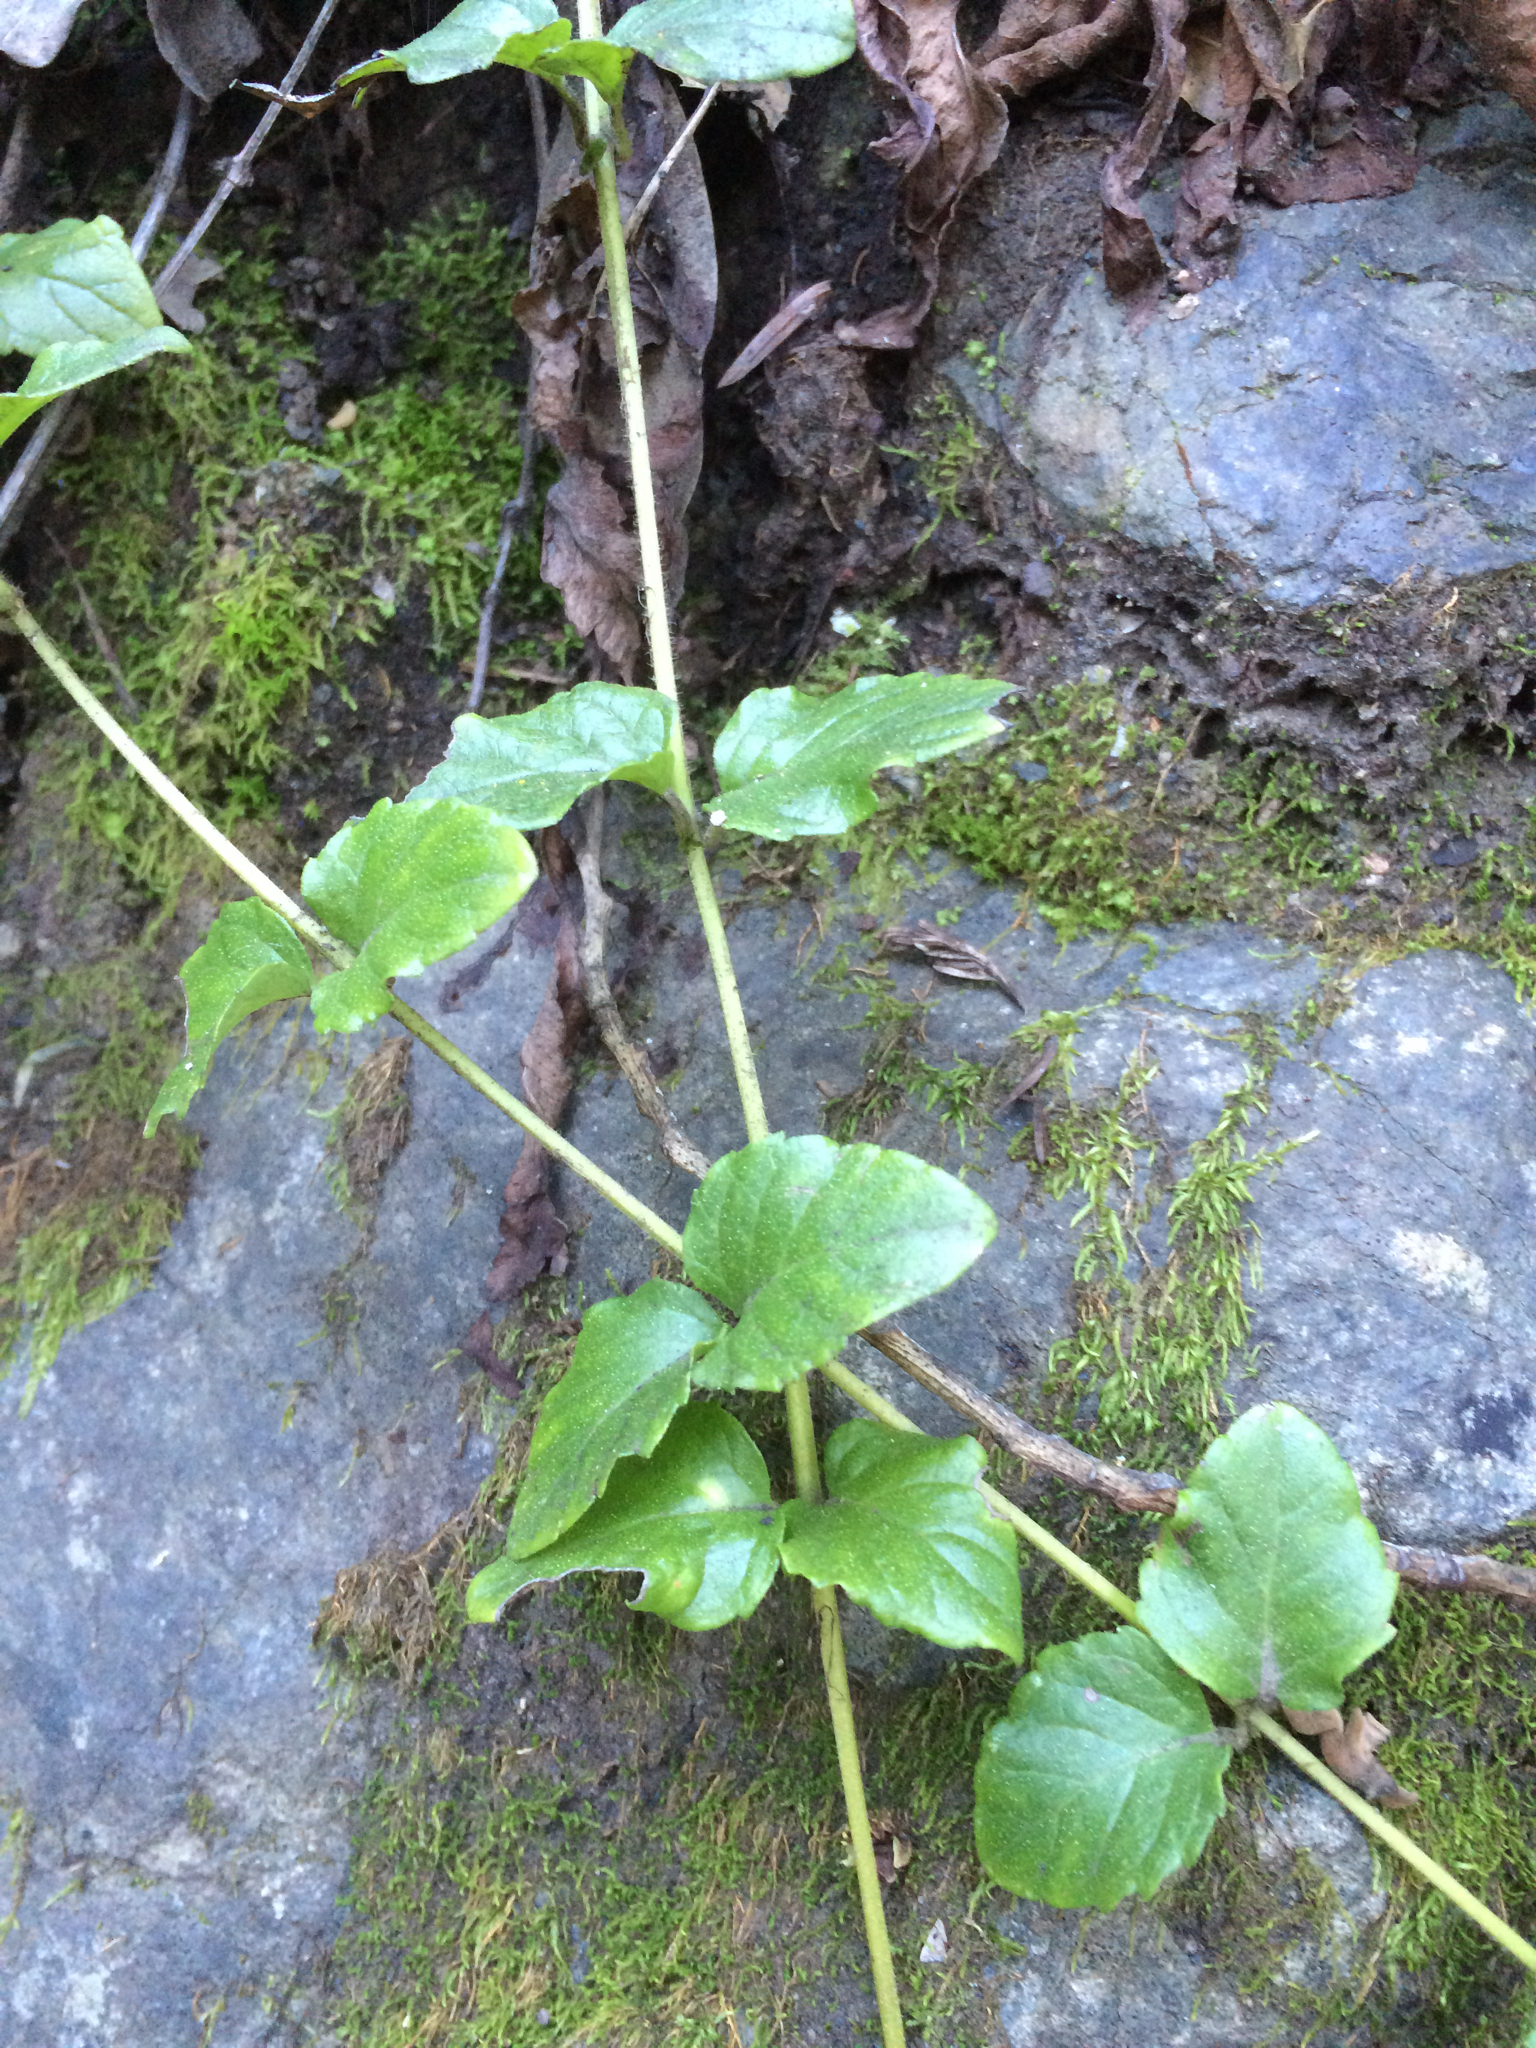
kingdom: Plantae
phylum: Tracheophyta
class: Magnoliopsida
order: Lamiales
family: Lamiaceae
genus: Micromeria
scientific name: Micromeria douglasii
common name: Yerba buena
